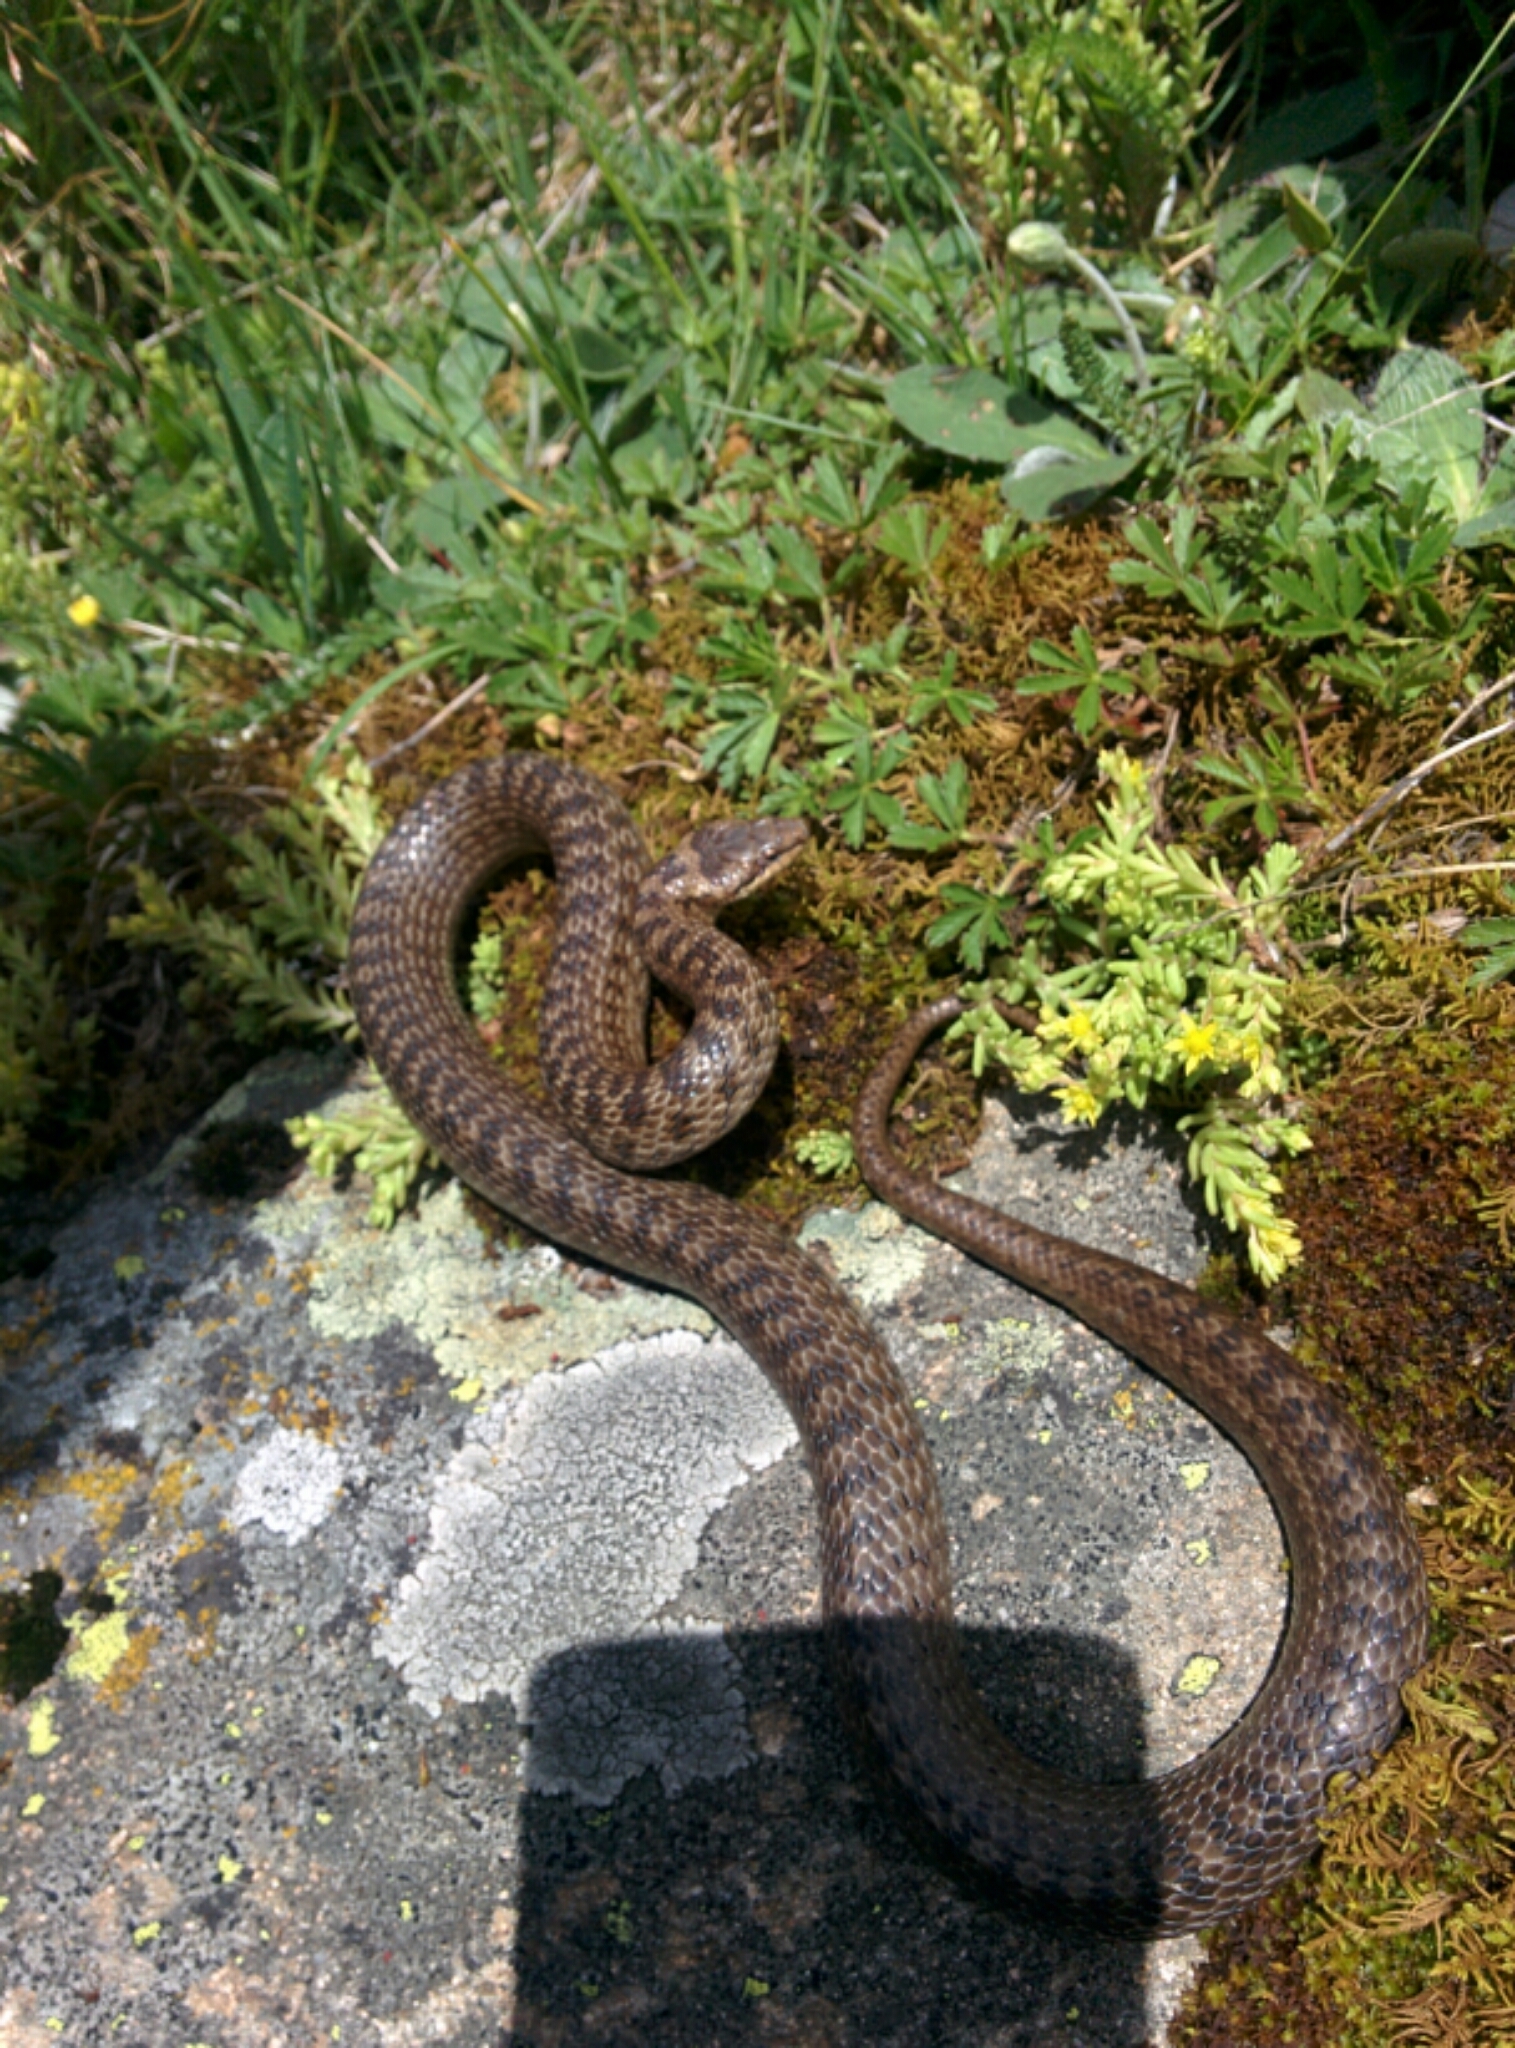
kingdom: Animalia
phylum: Chordata
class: Squamata
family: Colubridae
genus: Coronella
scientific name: Coronella austriaca
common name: Smooth snake
